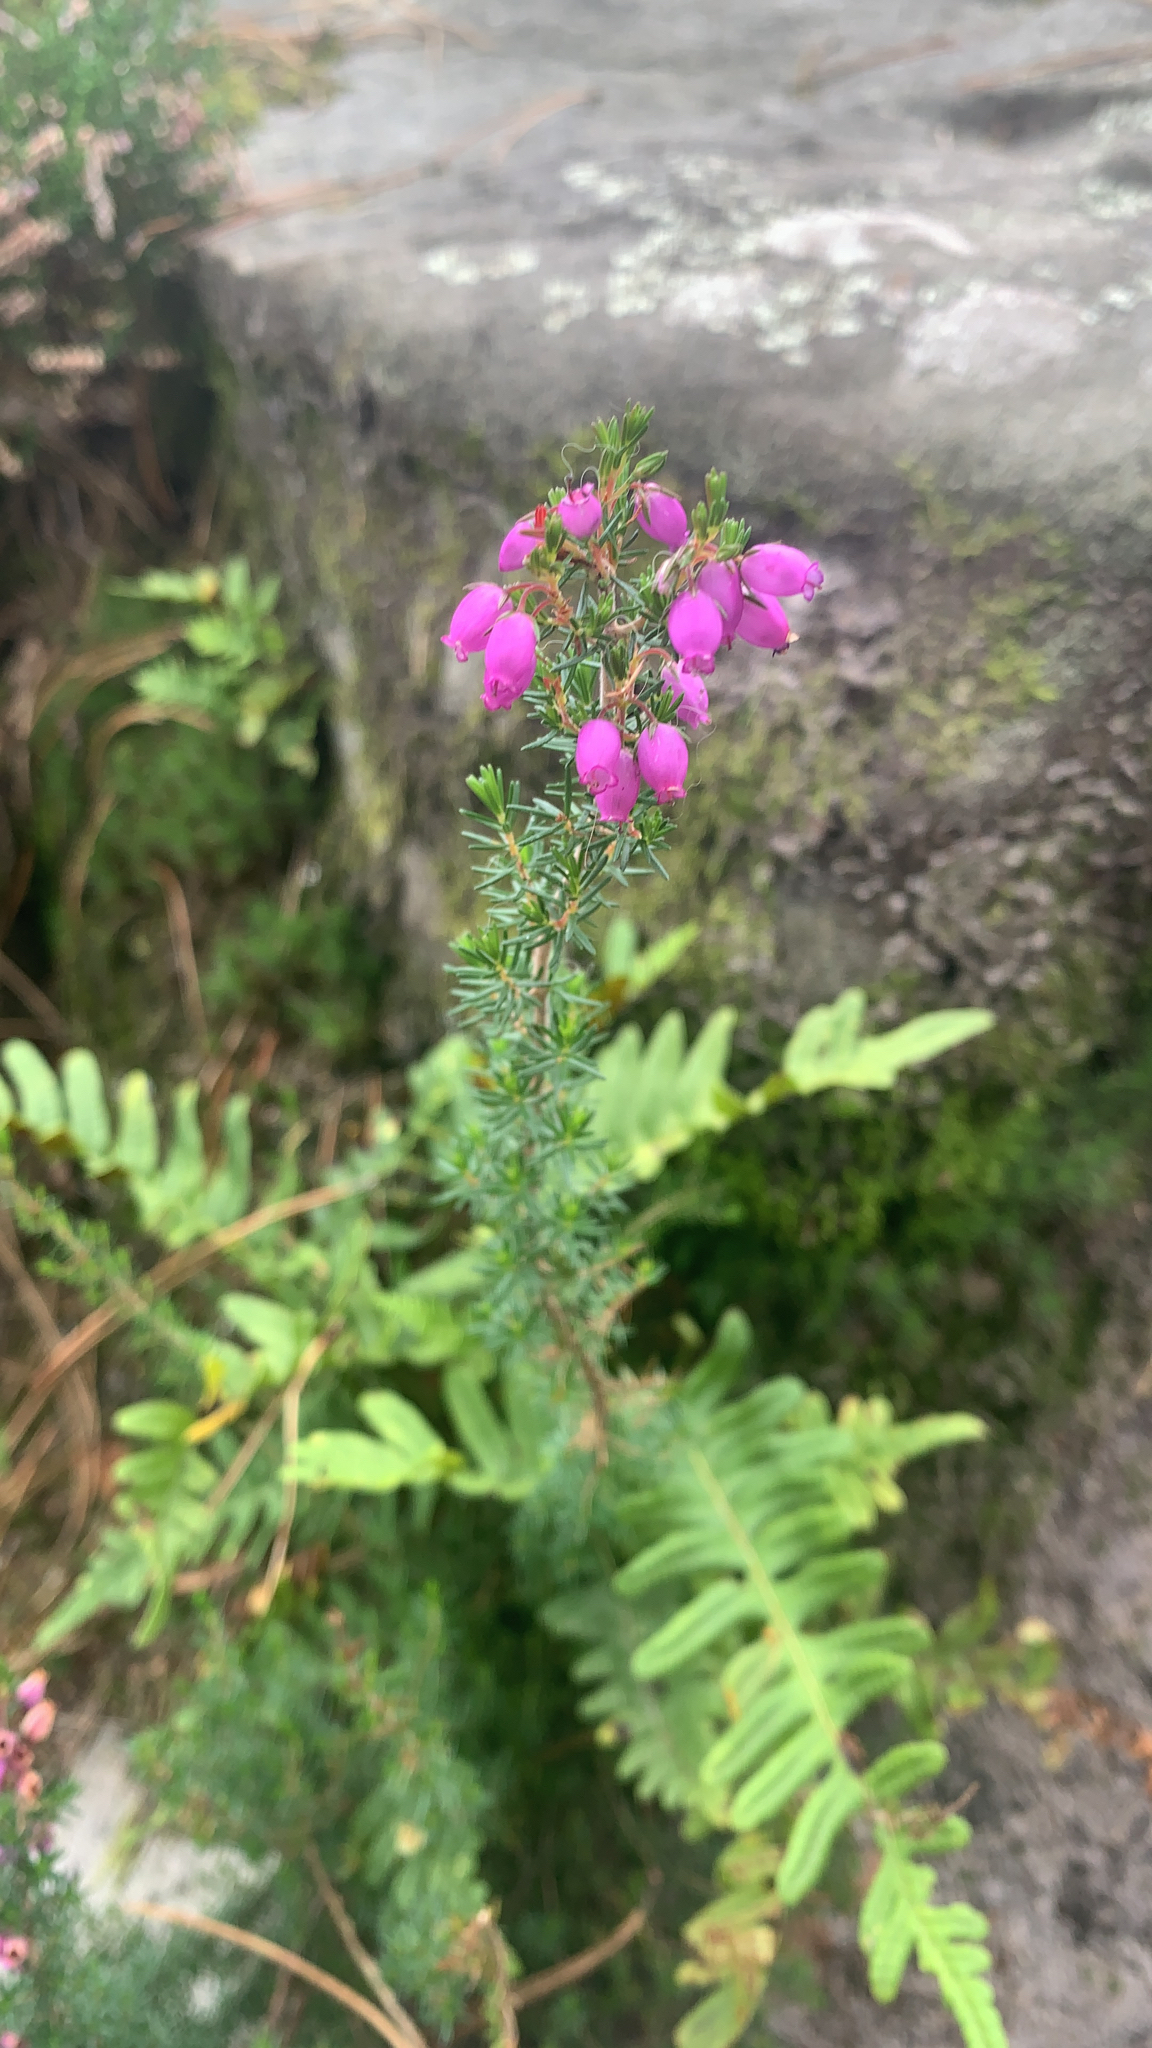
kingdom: Plantae
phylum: Tracheophyta
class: Magnoliopsida
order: Ericales
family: Ericaceae
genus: Erica
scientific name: Erica cinerea
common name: Bell heather
